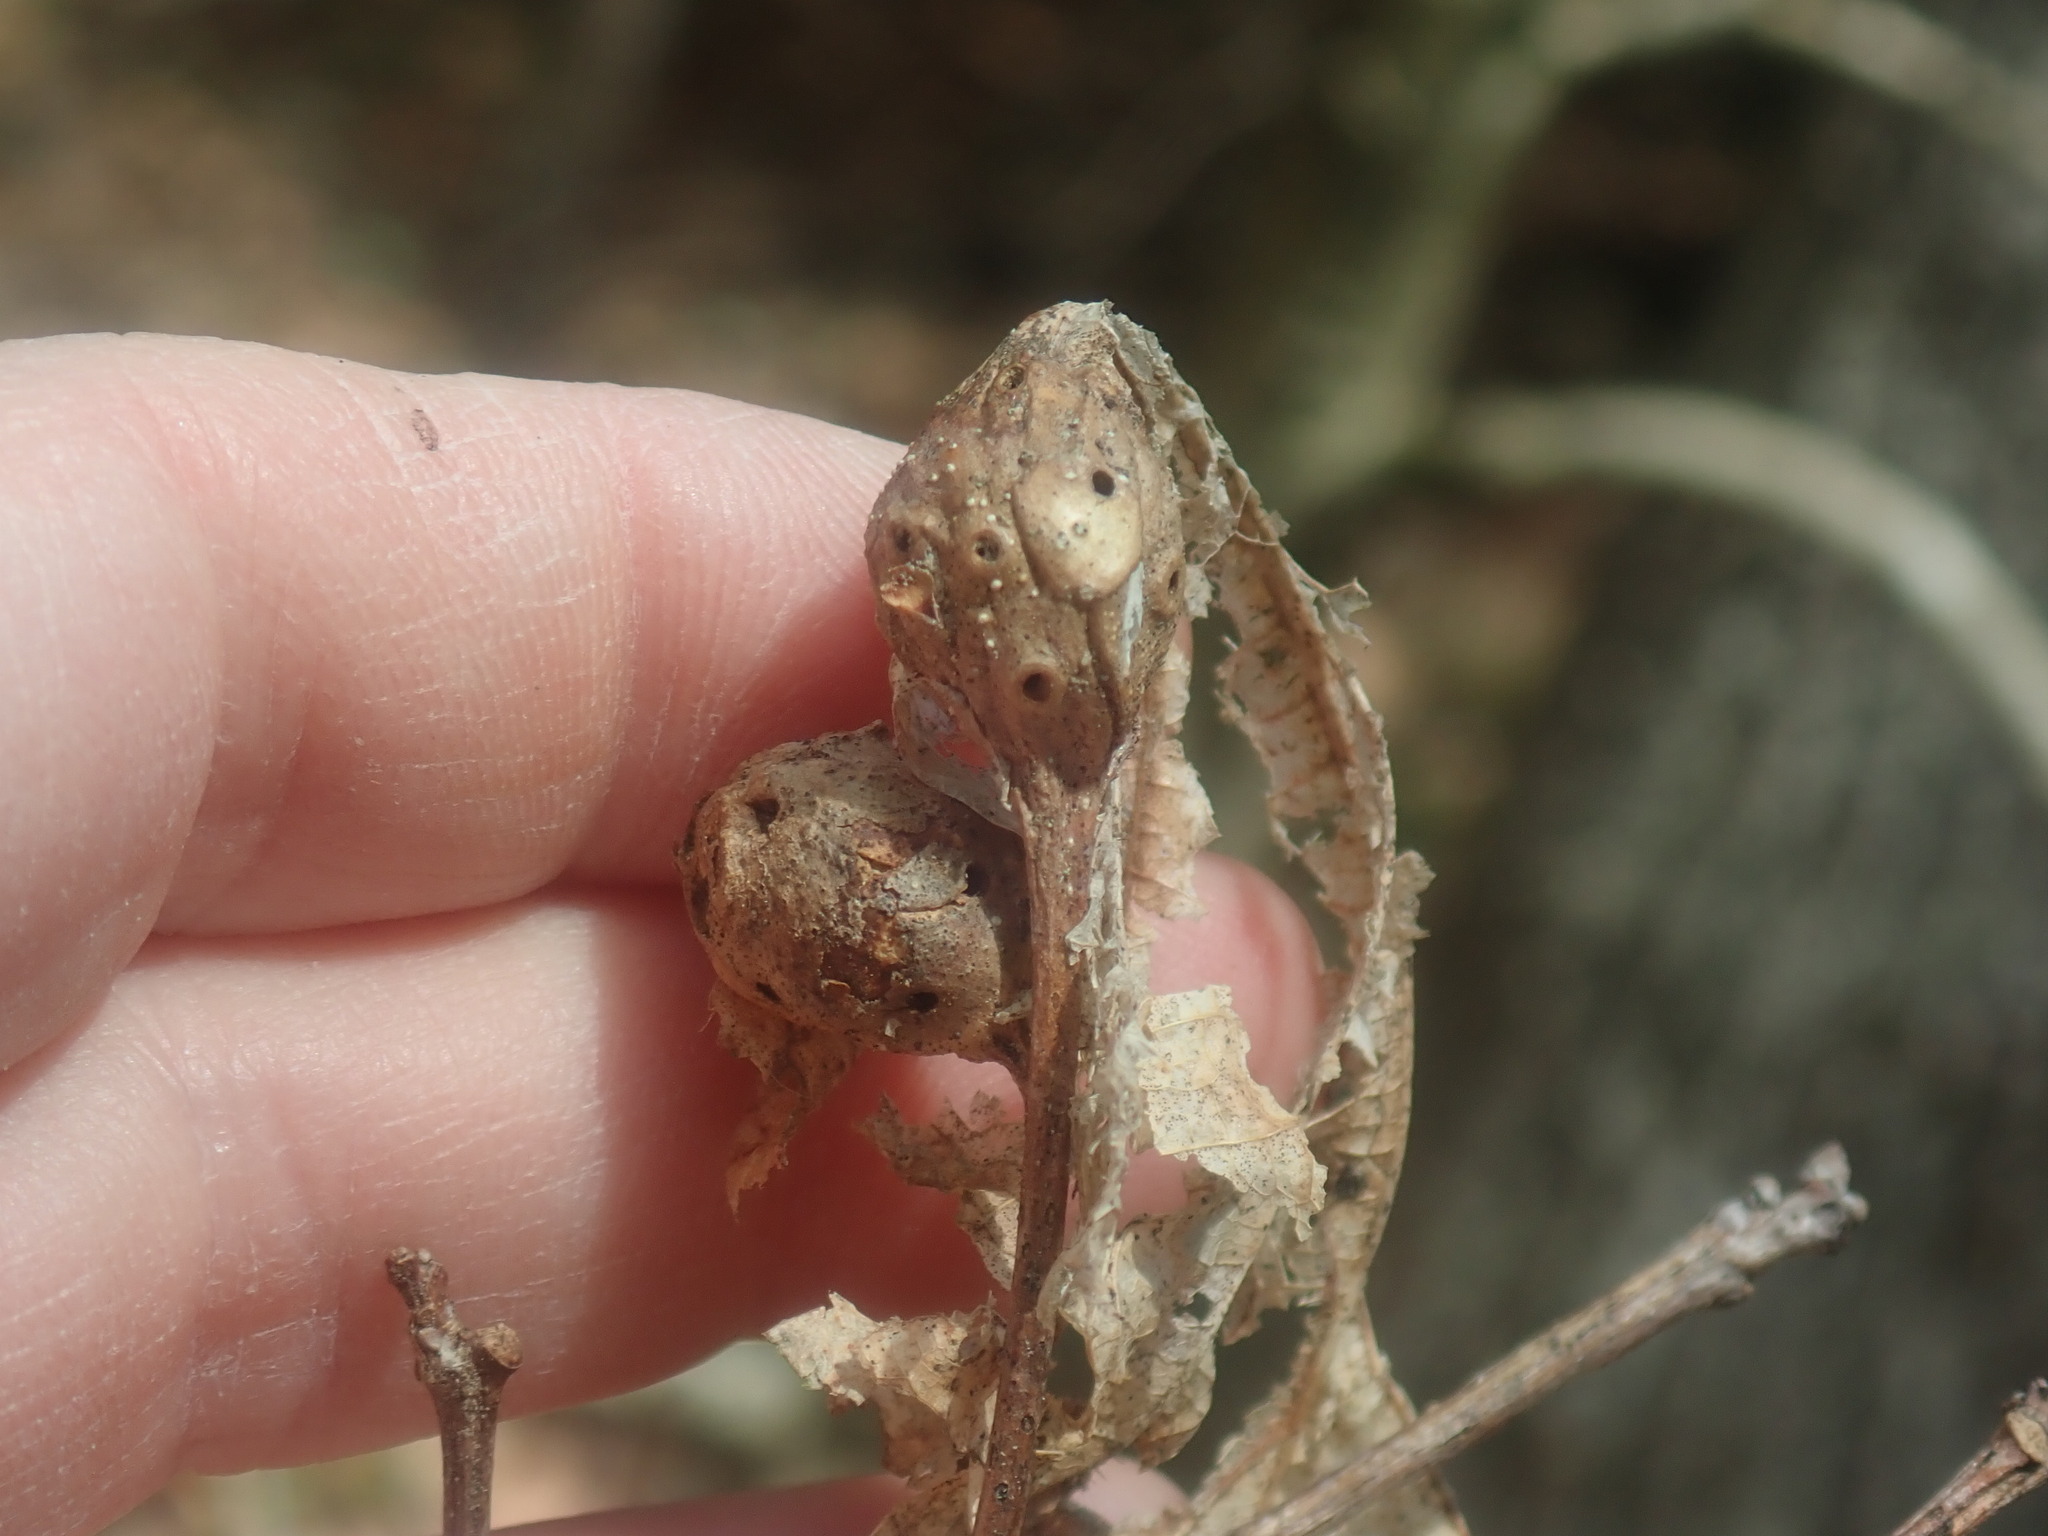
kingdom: Animalia
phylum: Arthropoda
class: Insecta
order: Hymenoptera
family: Cynipidae
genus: Andricus
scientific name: Andricus
